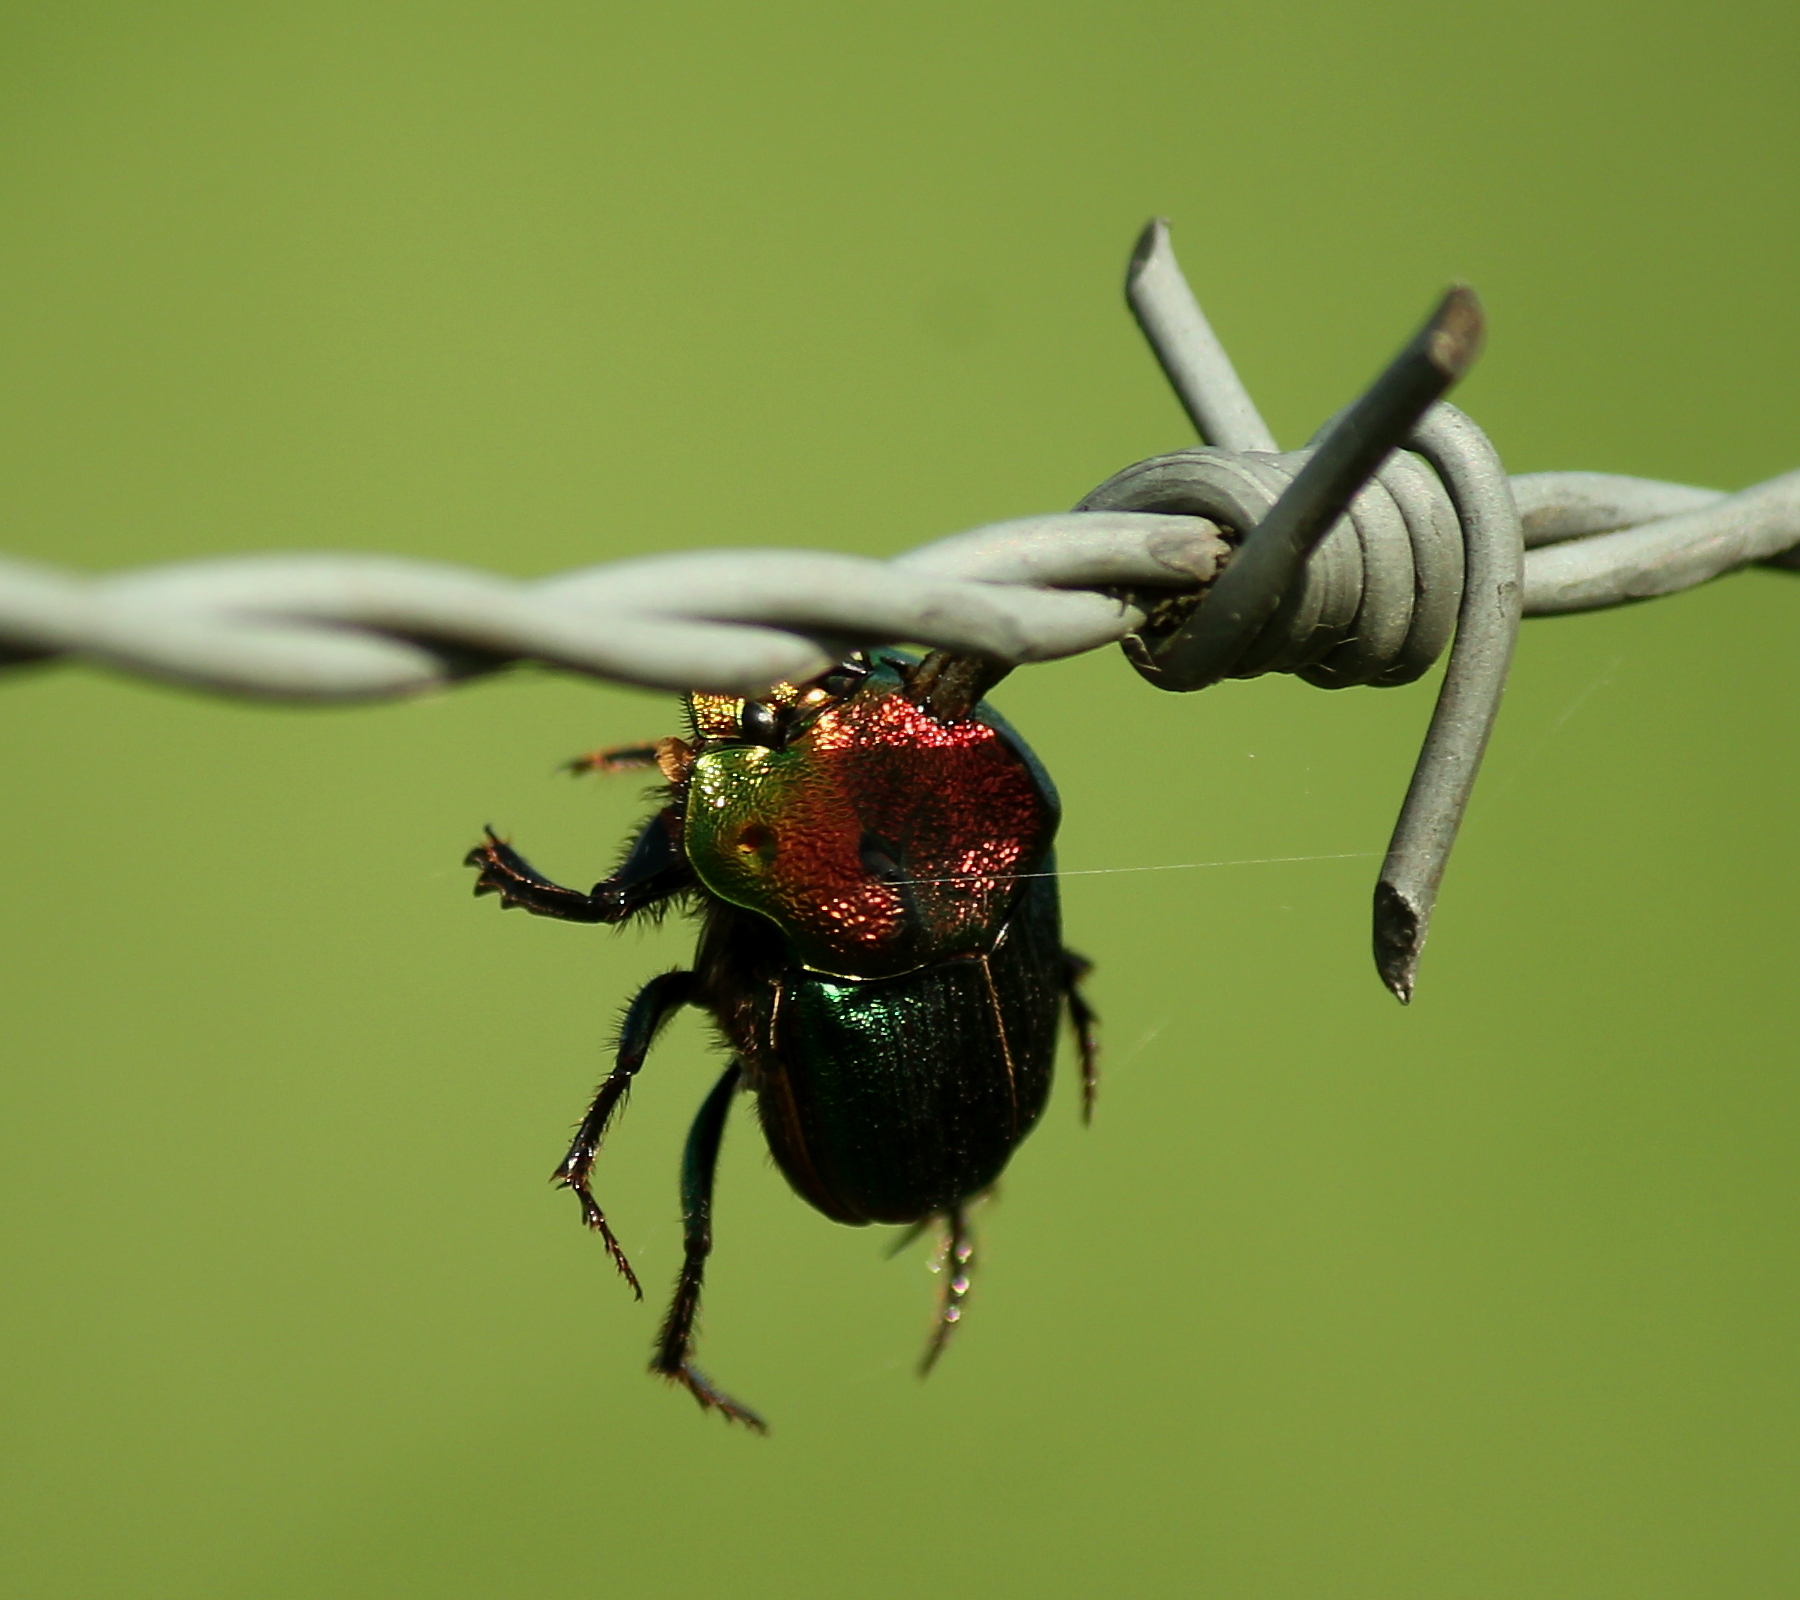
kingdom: Animalia
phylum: Arthropoda
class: Insecta
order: Coleoptera
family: Scarabaeidae
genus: Phanaeus
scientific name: Phanaeus vindex
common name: Rainbow scarab
